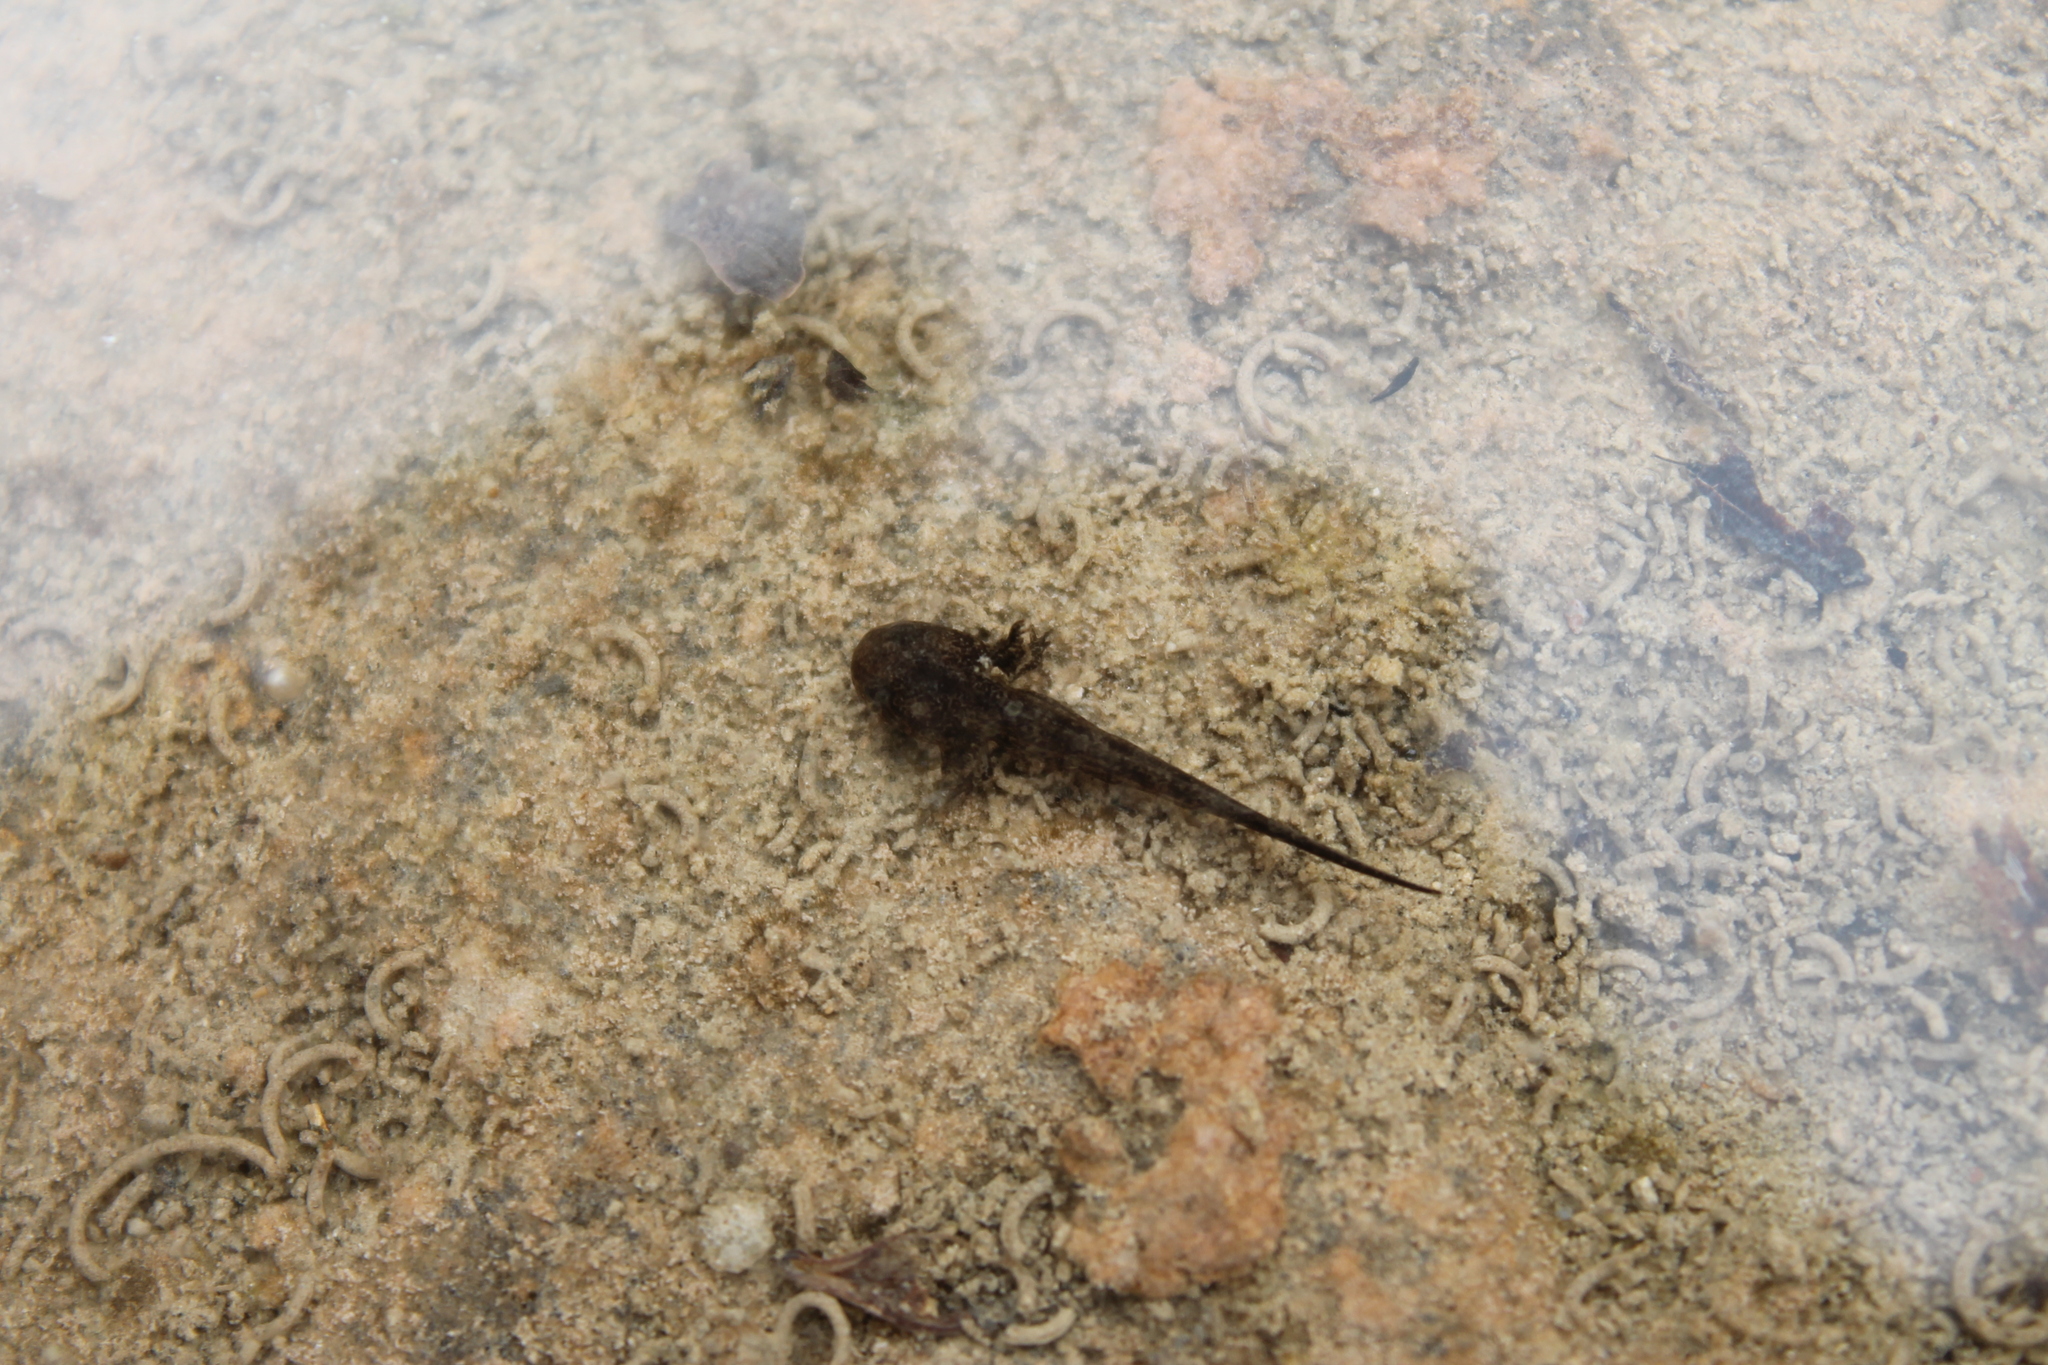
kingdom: Animalia
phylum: Chordata
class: Amphibia
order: Caudata
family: Ambystomatidae
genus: Ambystoma
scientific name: Ambystoma barbouri
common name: Streamside salamander
